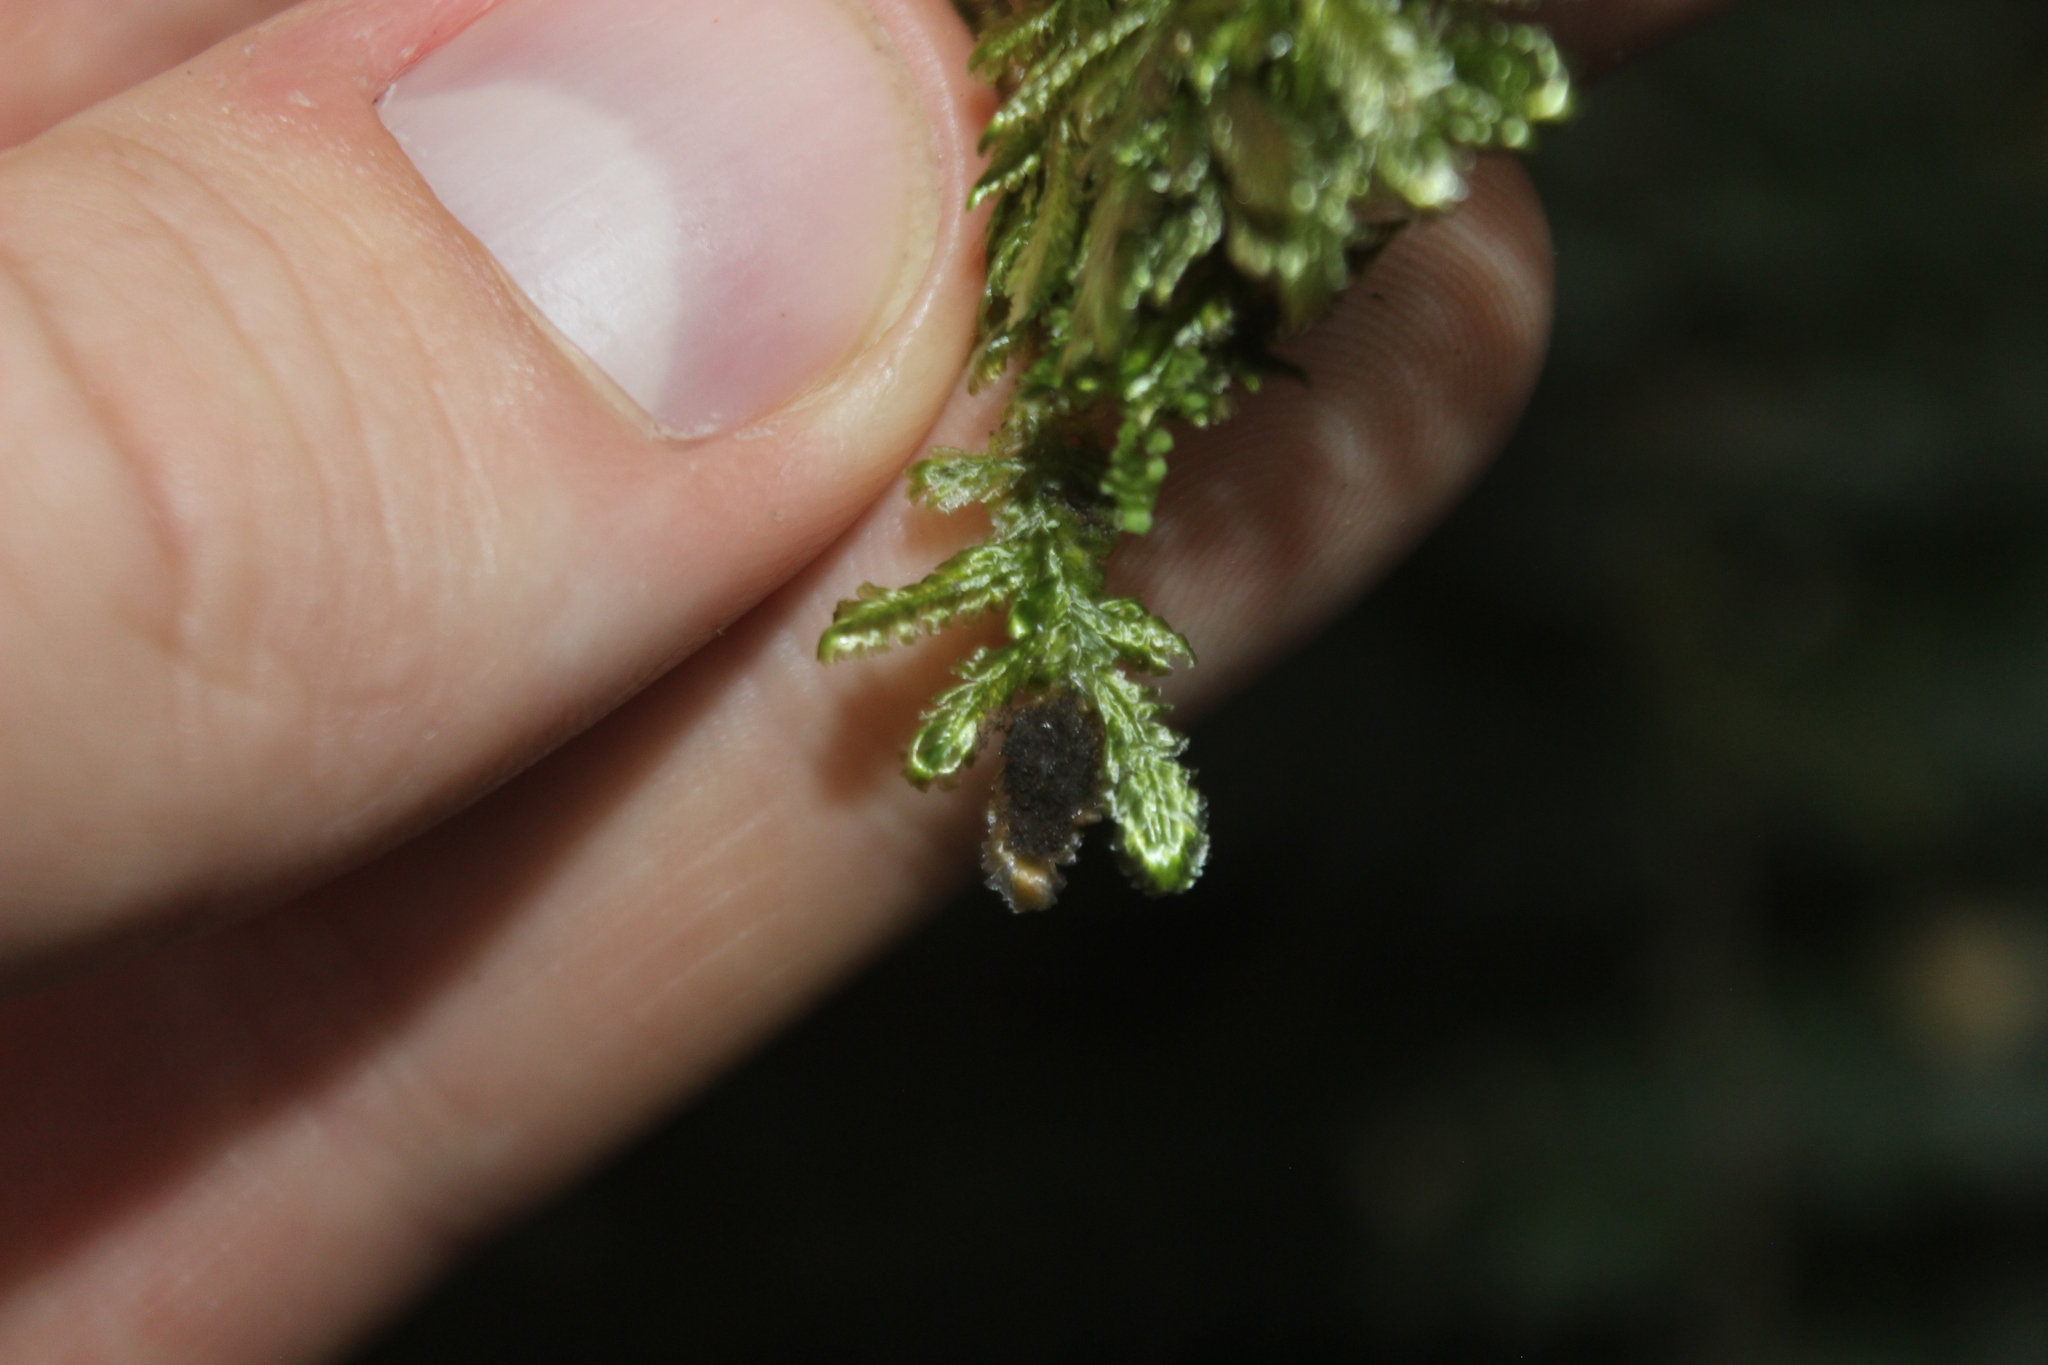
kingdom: Plantae
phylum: Bryophyta
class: Bryopsida
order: Hypnales
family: Lembophyllaceae
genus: Margrethypnum
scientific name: Margrethypnum falcifolium
